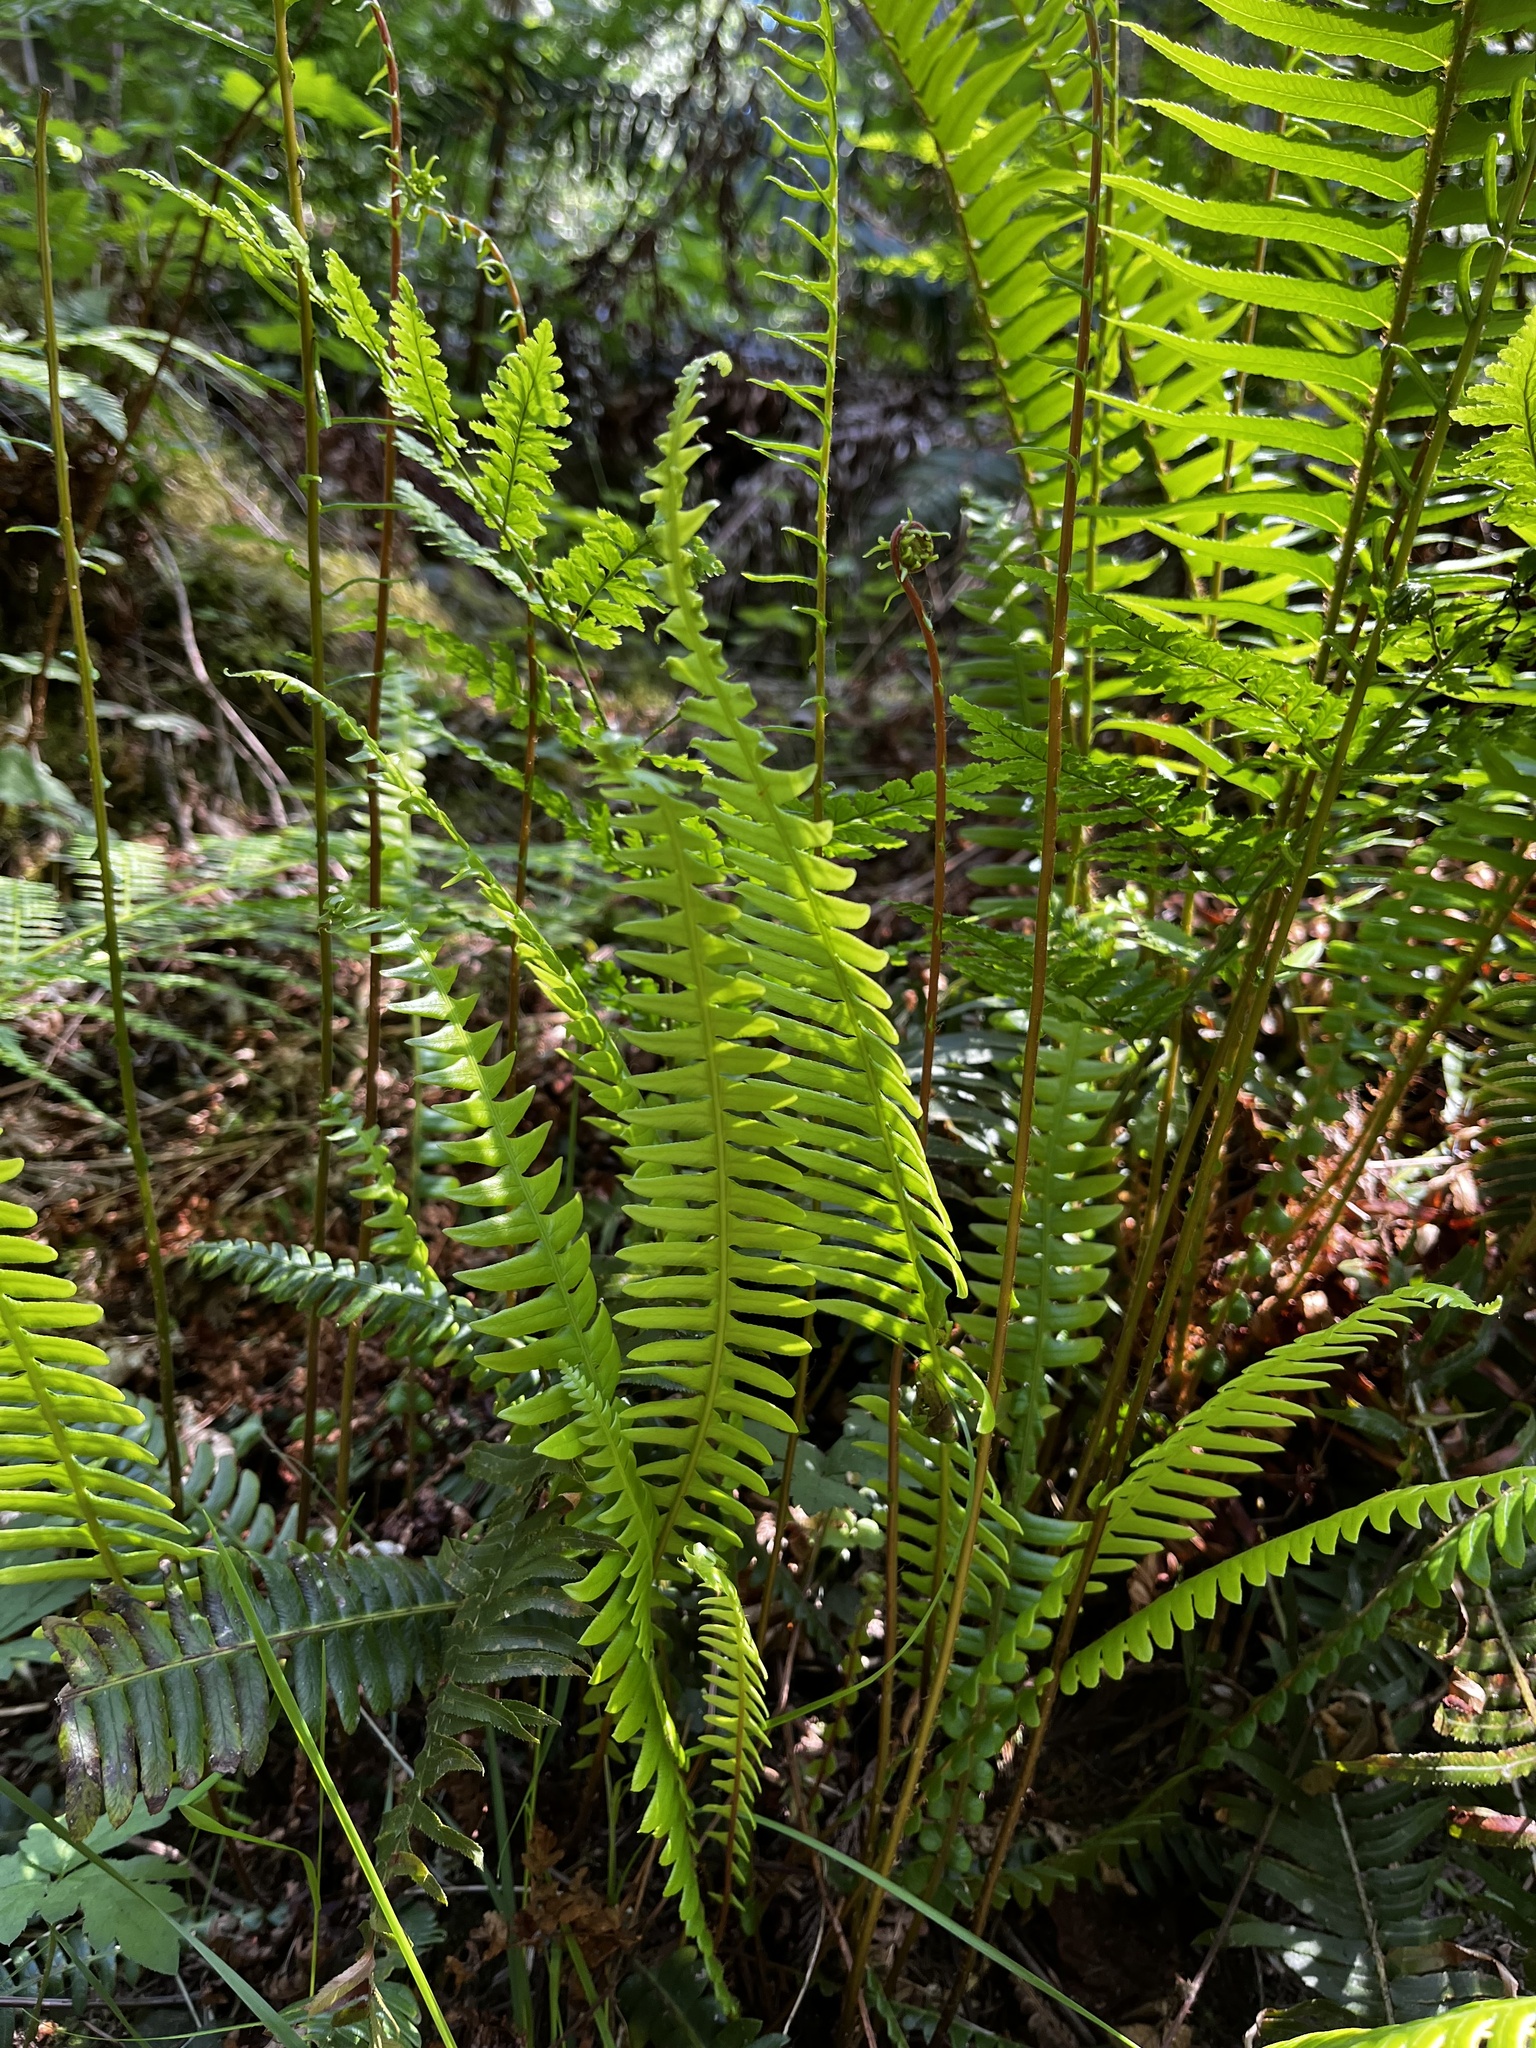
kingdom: Plantae
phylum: Tracheophyta
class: Polypodiopsida
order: Polypodiales
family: Blechnaceae
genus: Struthiopteris
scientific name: Struthiopteris spicant
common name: Deer fern
